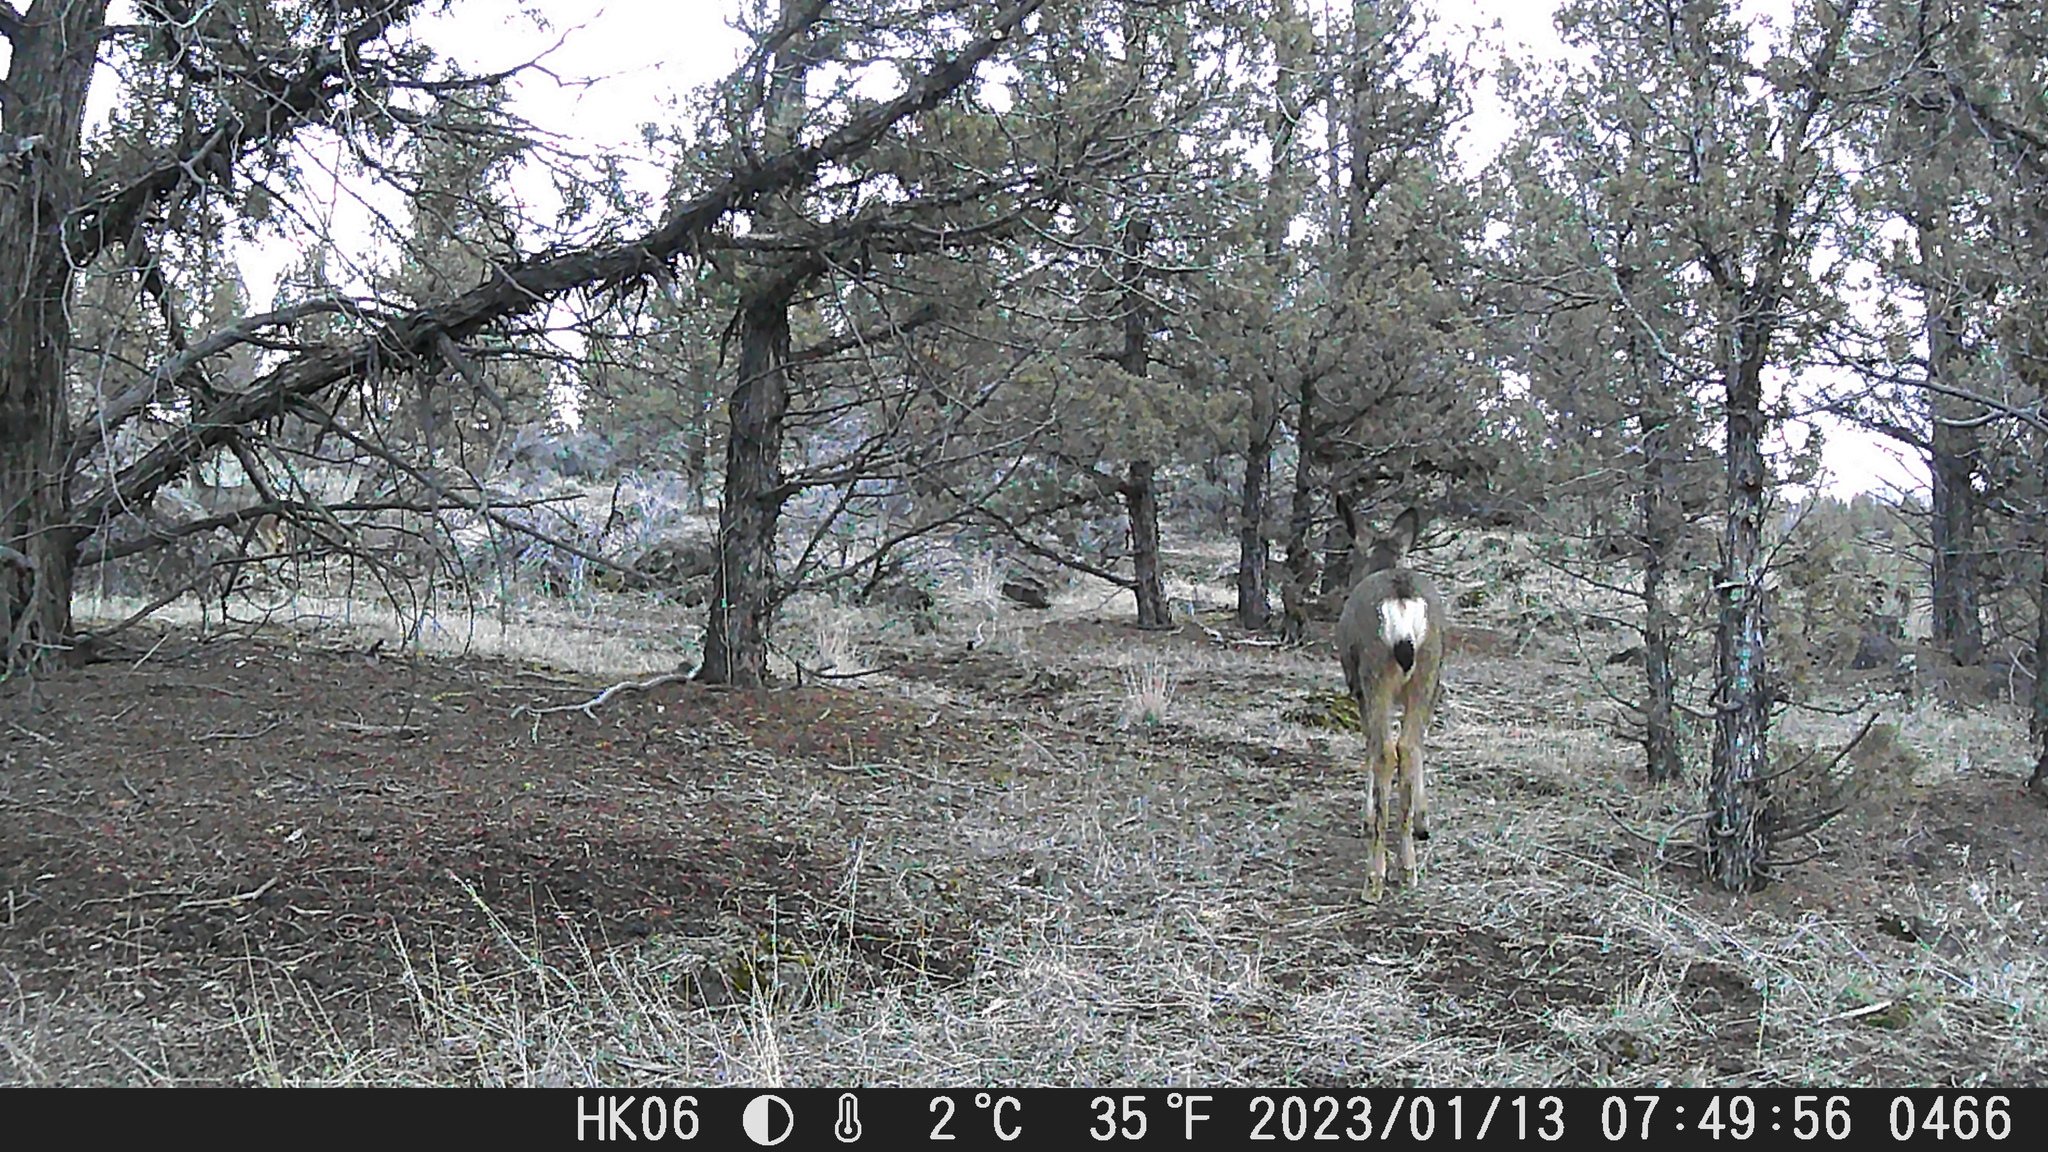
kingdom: Animalia
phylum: Chordata
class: Mammalia
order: Artiodactyla
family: Cervidae
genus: Odocoileus
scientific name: Odocoileus hemionus
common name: Mule deer
